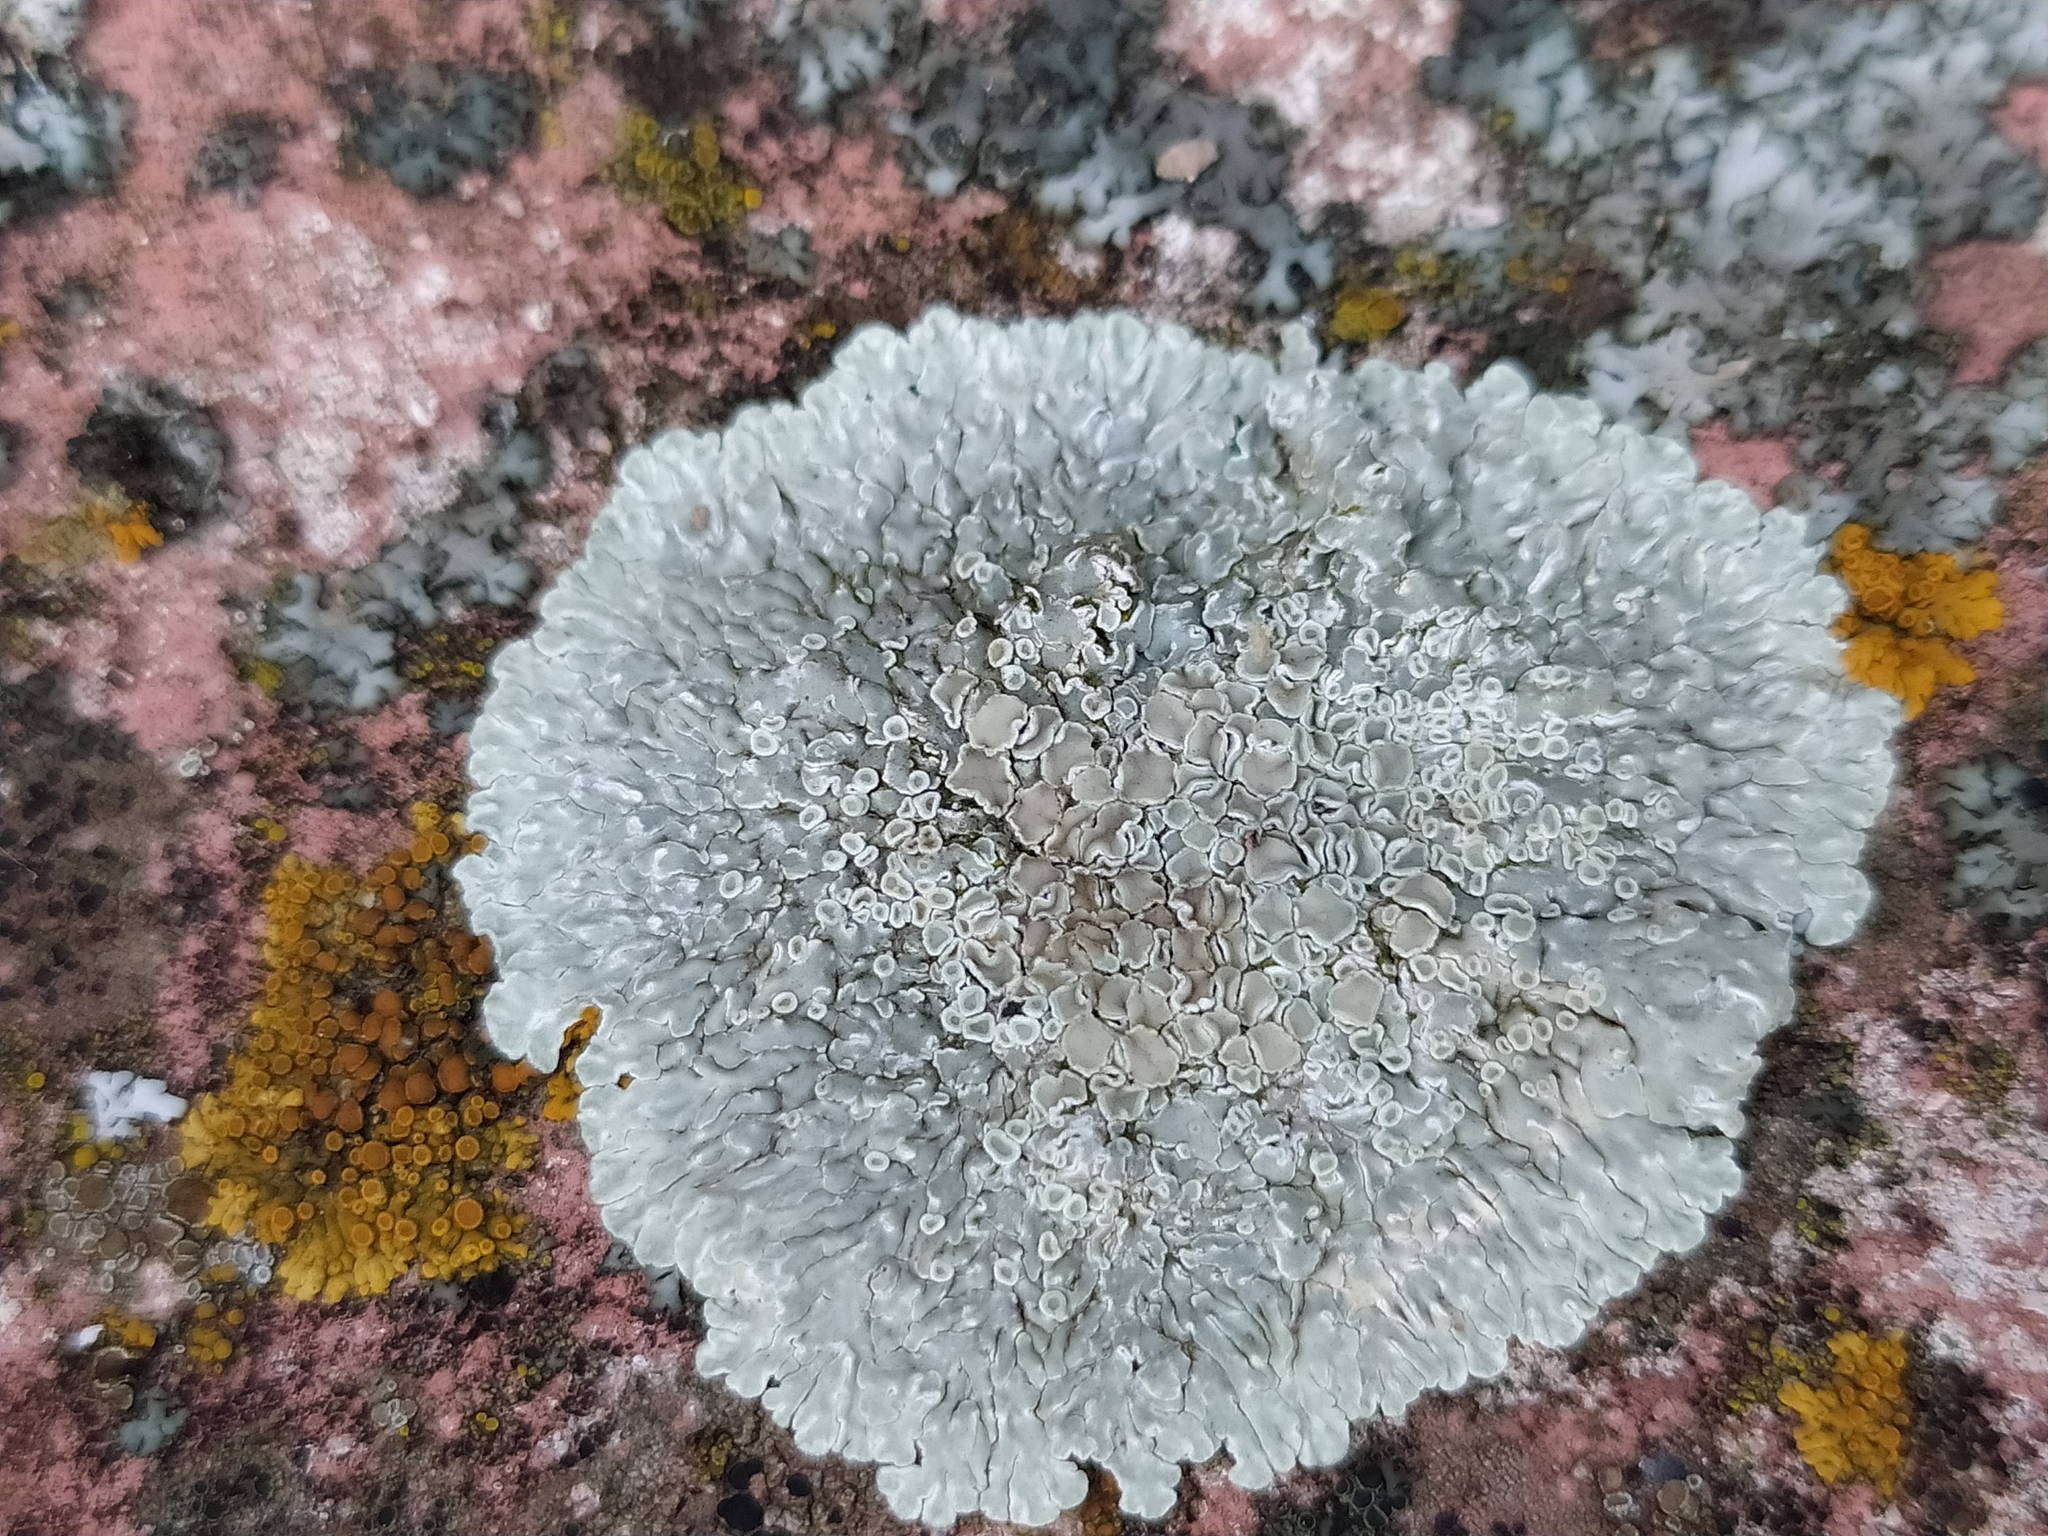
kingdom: Fungi
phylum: Ascomycota
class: Lecanoromycetes
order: Lecanorales
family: Lecanoraceae
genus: Protoparmeliopsis
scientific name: Protoparmeliopsis muralis
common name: Stonewall rim lichen
